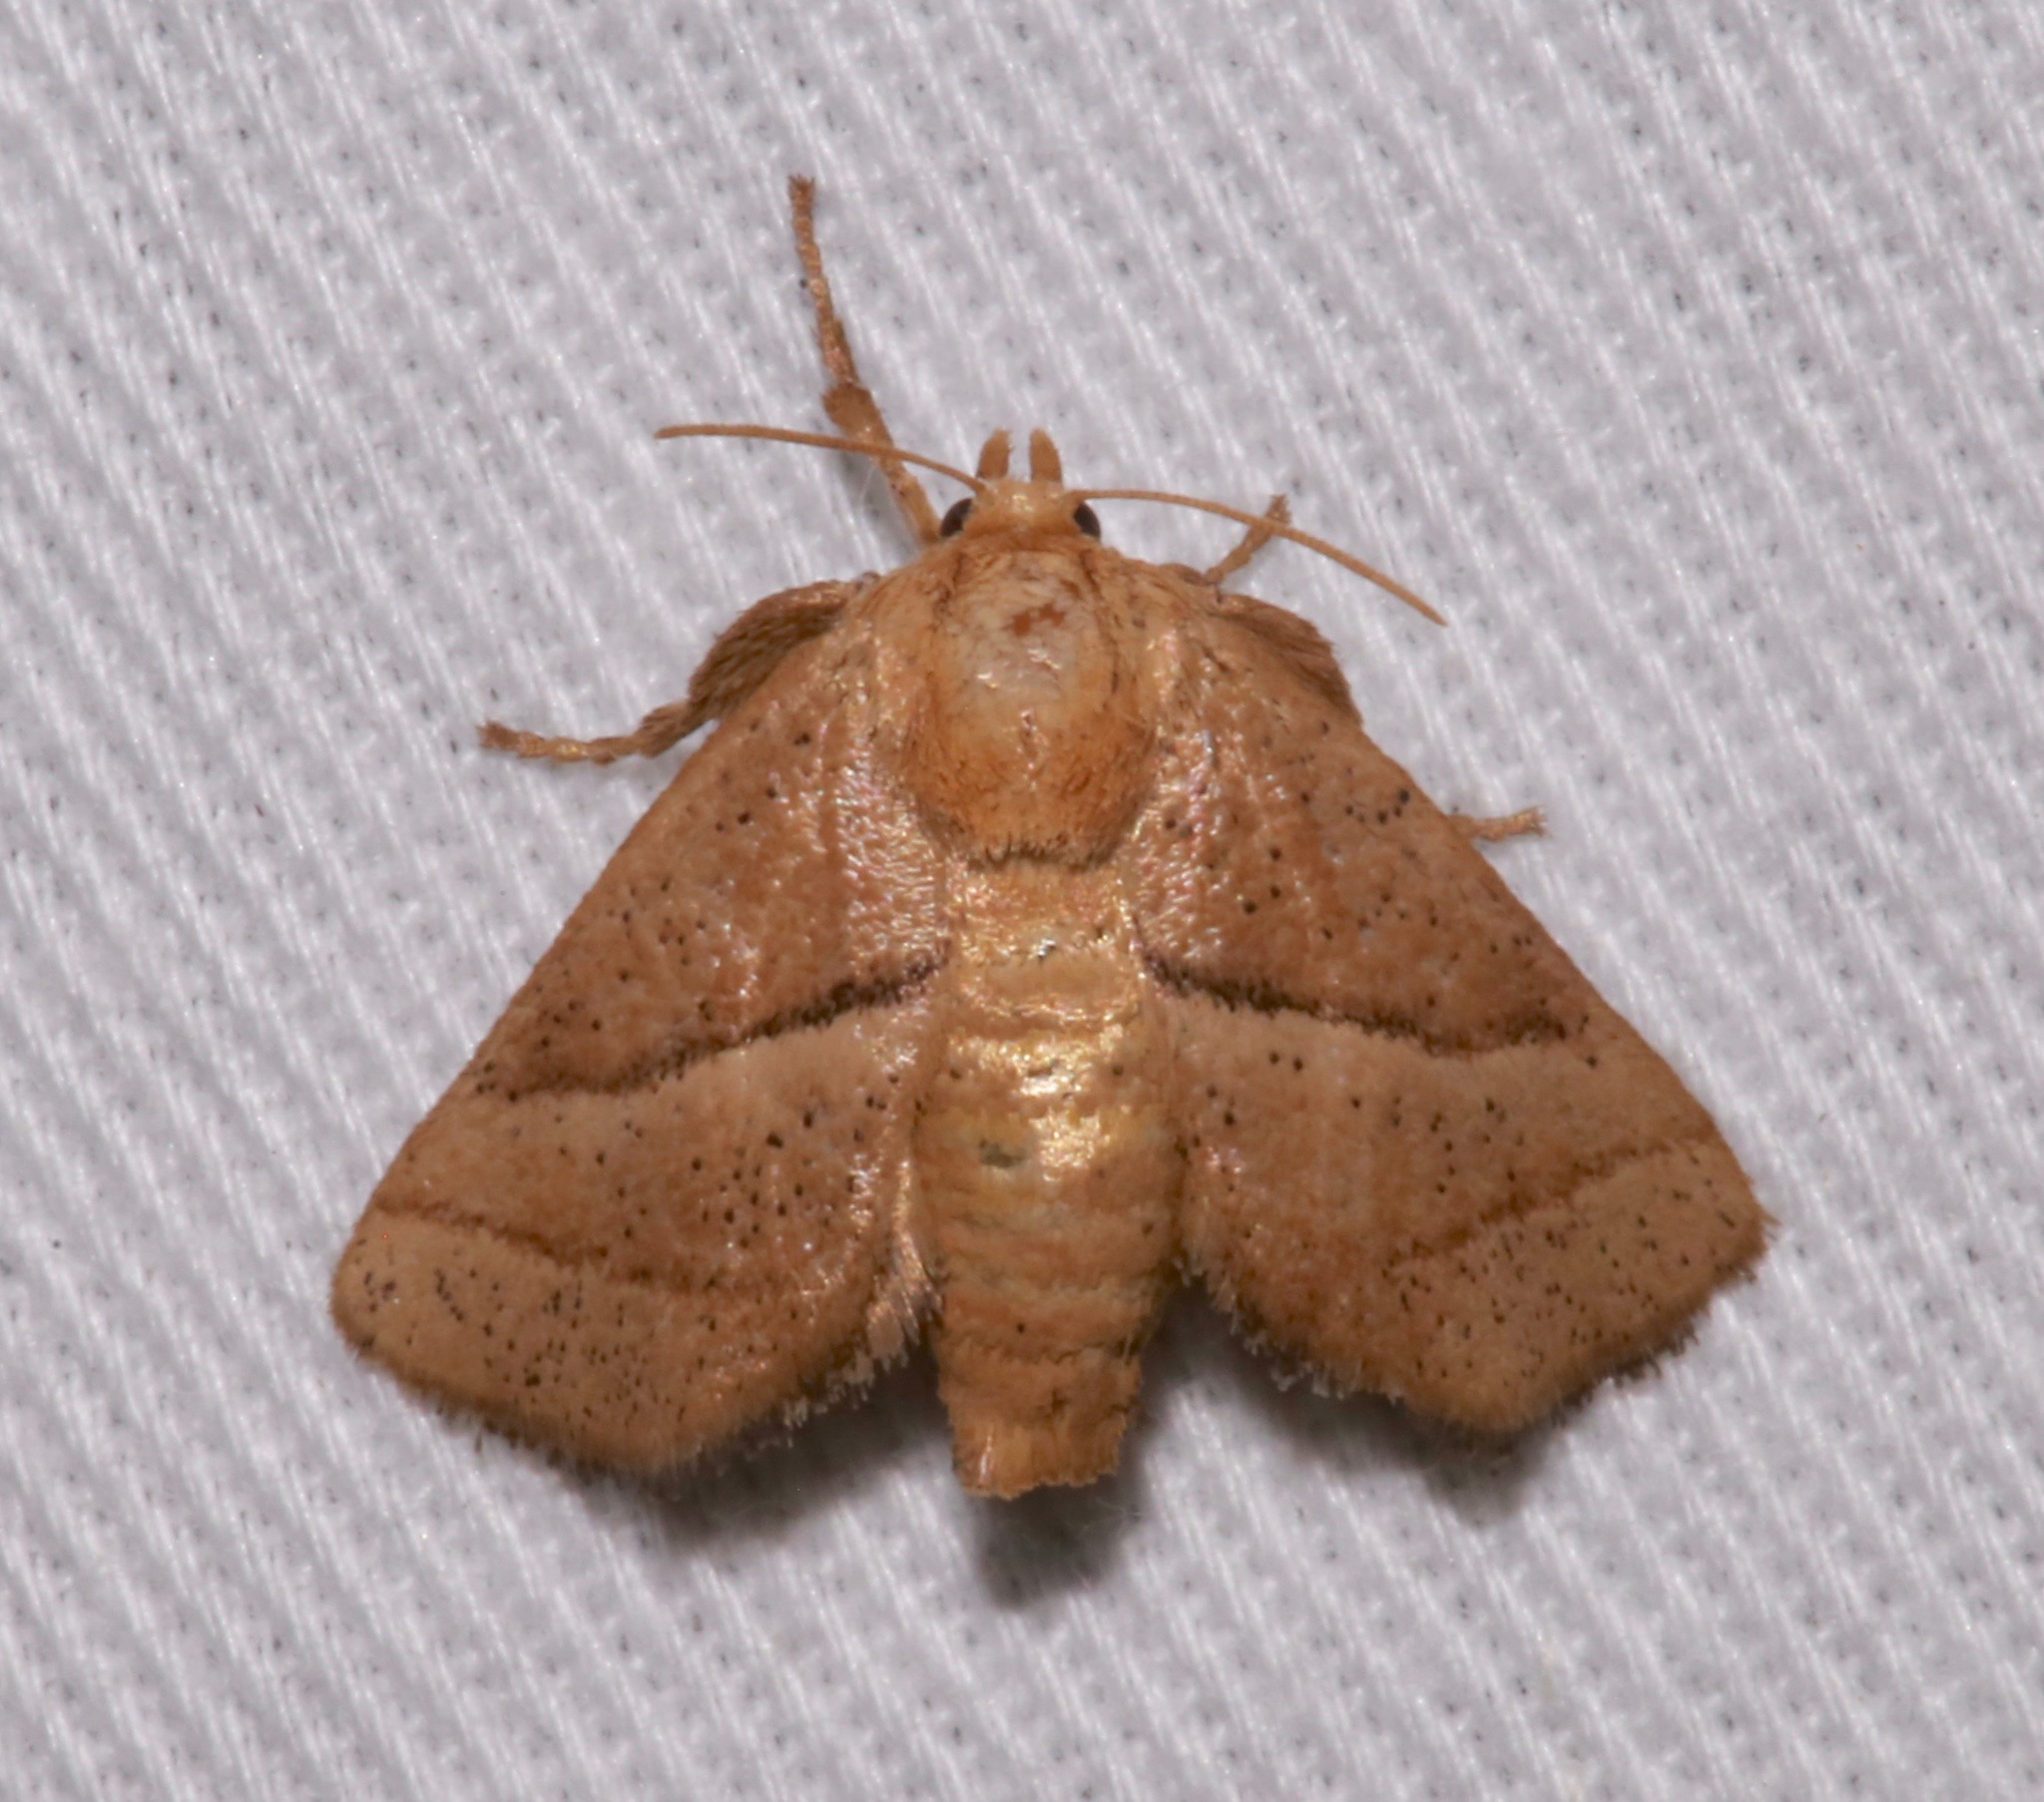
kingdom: Animalia
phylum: Arthropoda
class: Insecta
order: Lepidoptera
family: Limacodidae
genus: Natada
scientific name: Natada nasoni
